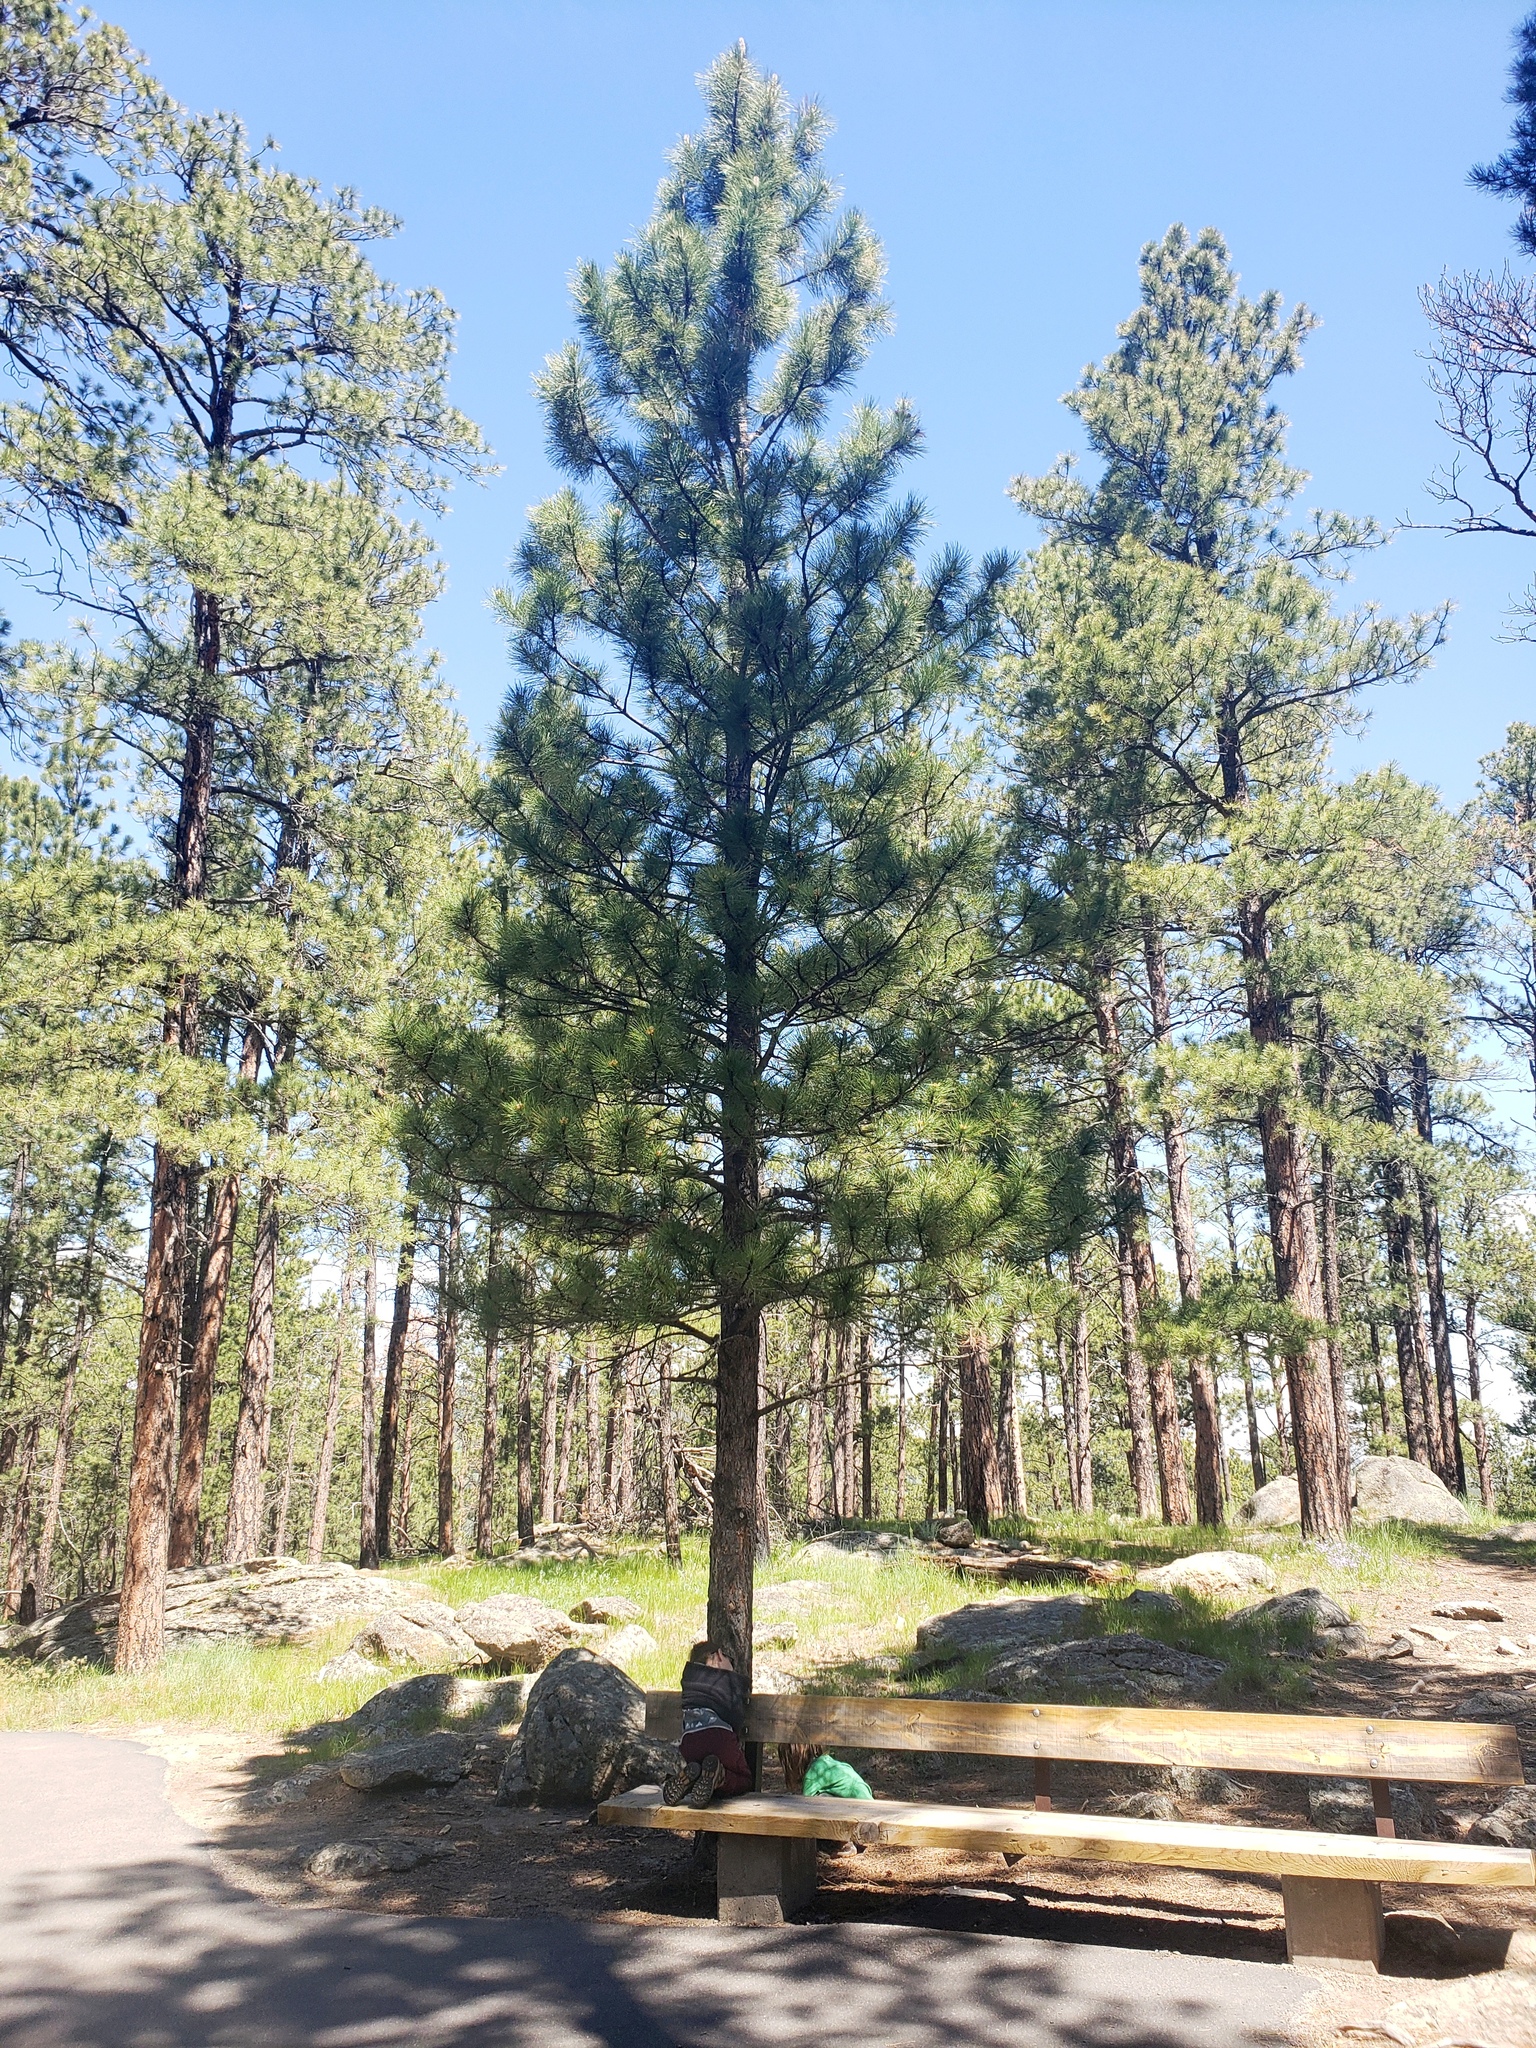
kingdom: Plantae
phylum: Tracheophyta
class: Pinopsida
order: Pinales
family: Pinaceae
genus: Pinus
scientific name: Pinus ponderosa
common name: Western yellow-pine
